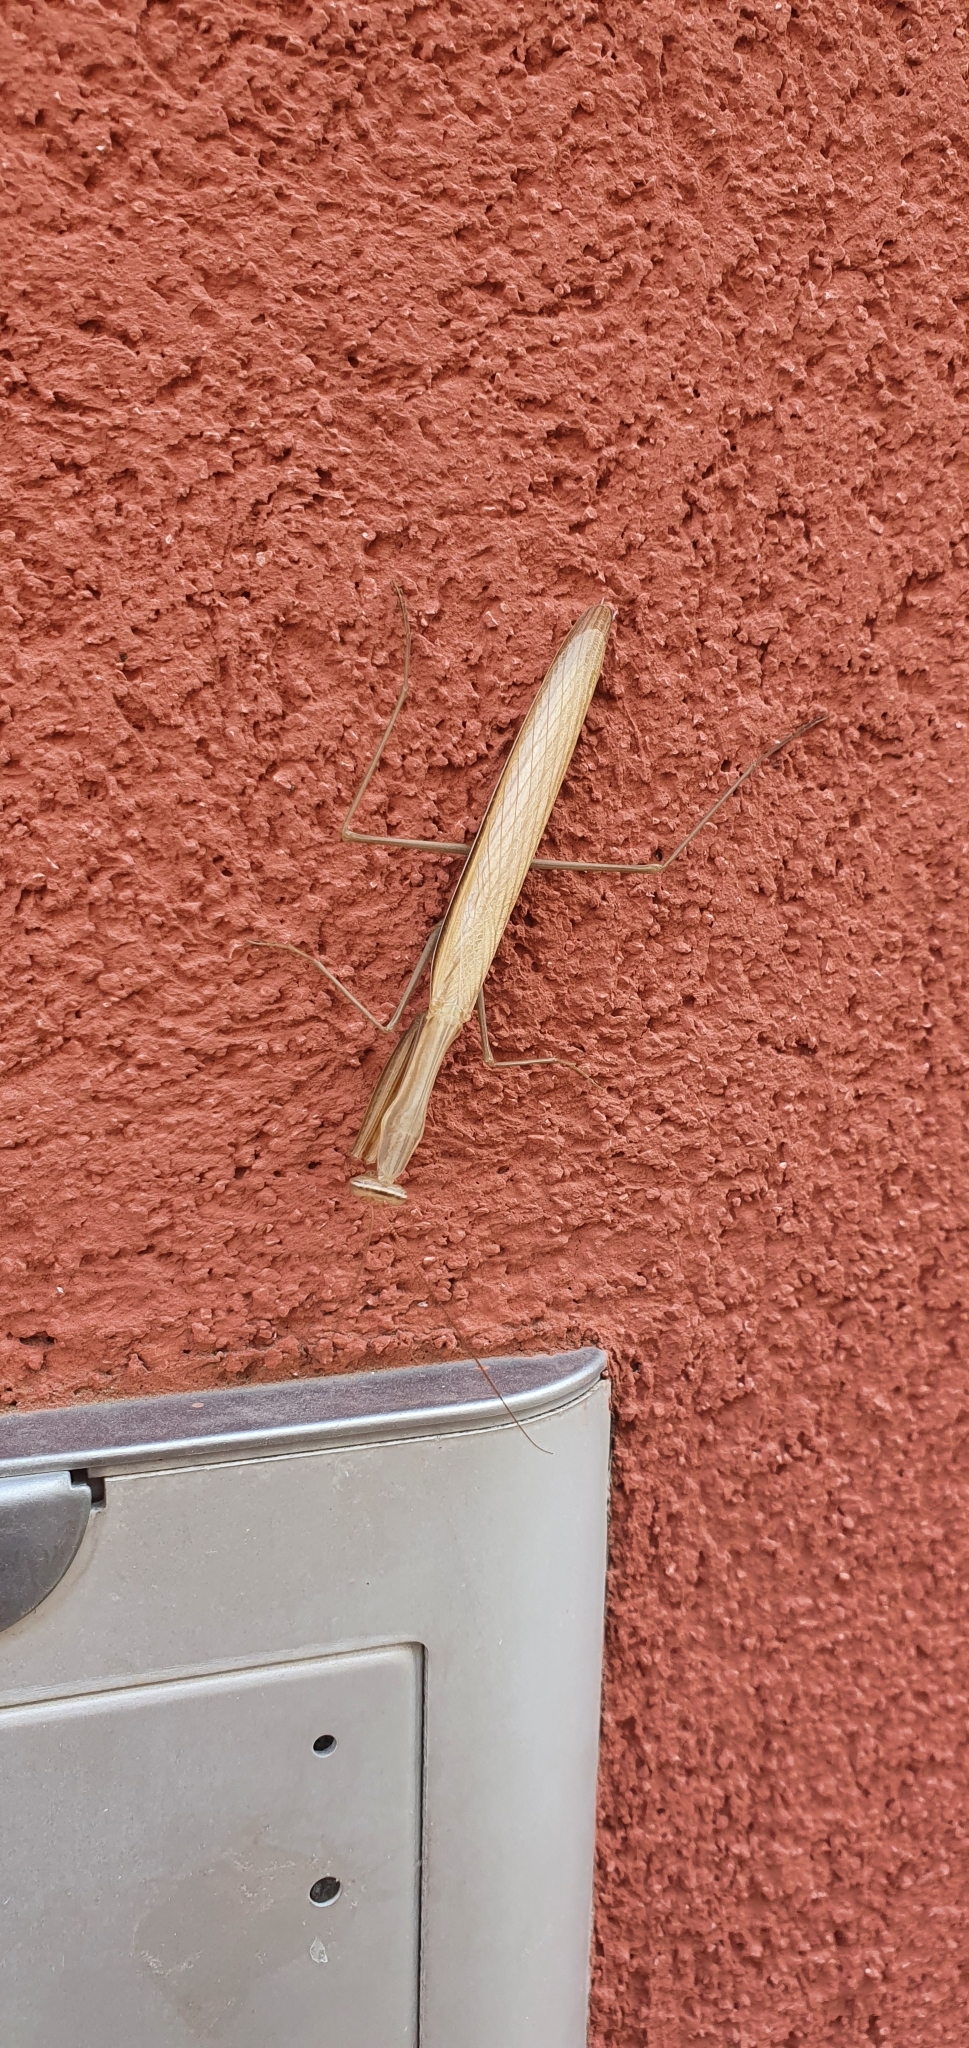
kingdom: Animalia
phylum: Arthropoda
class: Insecta
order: Mantodea
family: Mantidae
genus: Mantis
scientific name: Mantis religiosa
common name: Praying mantis
